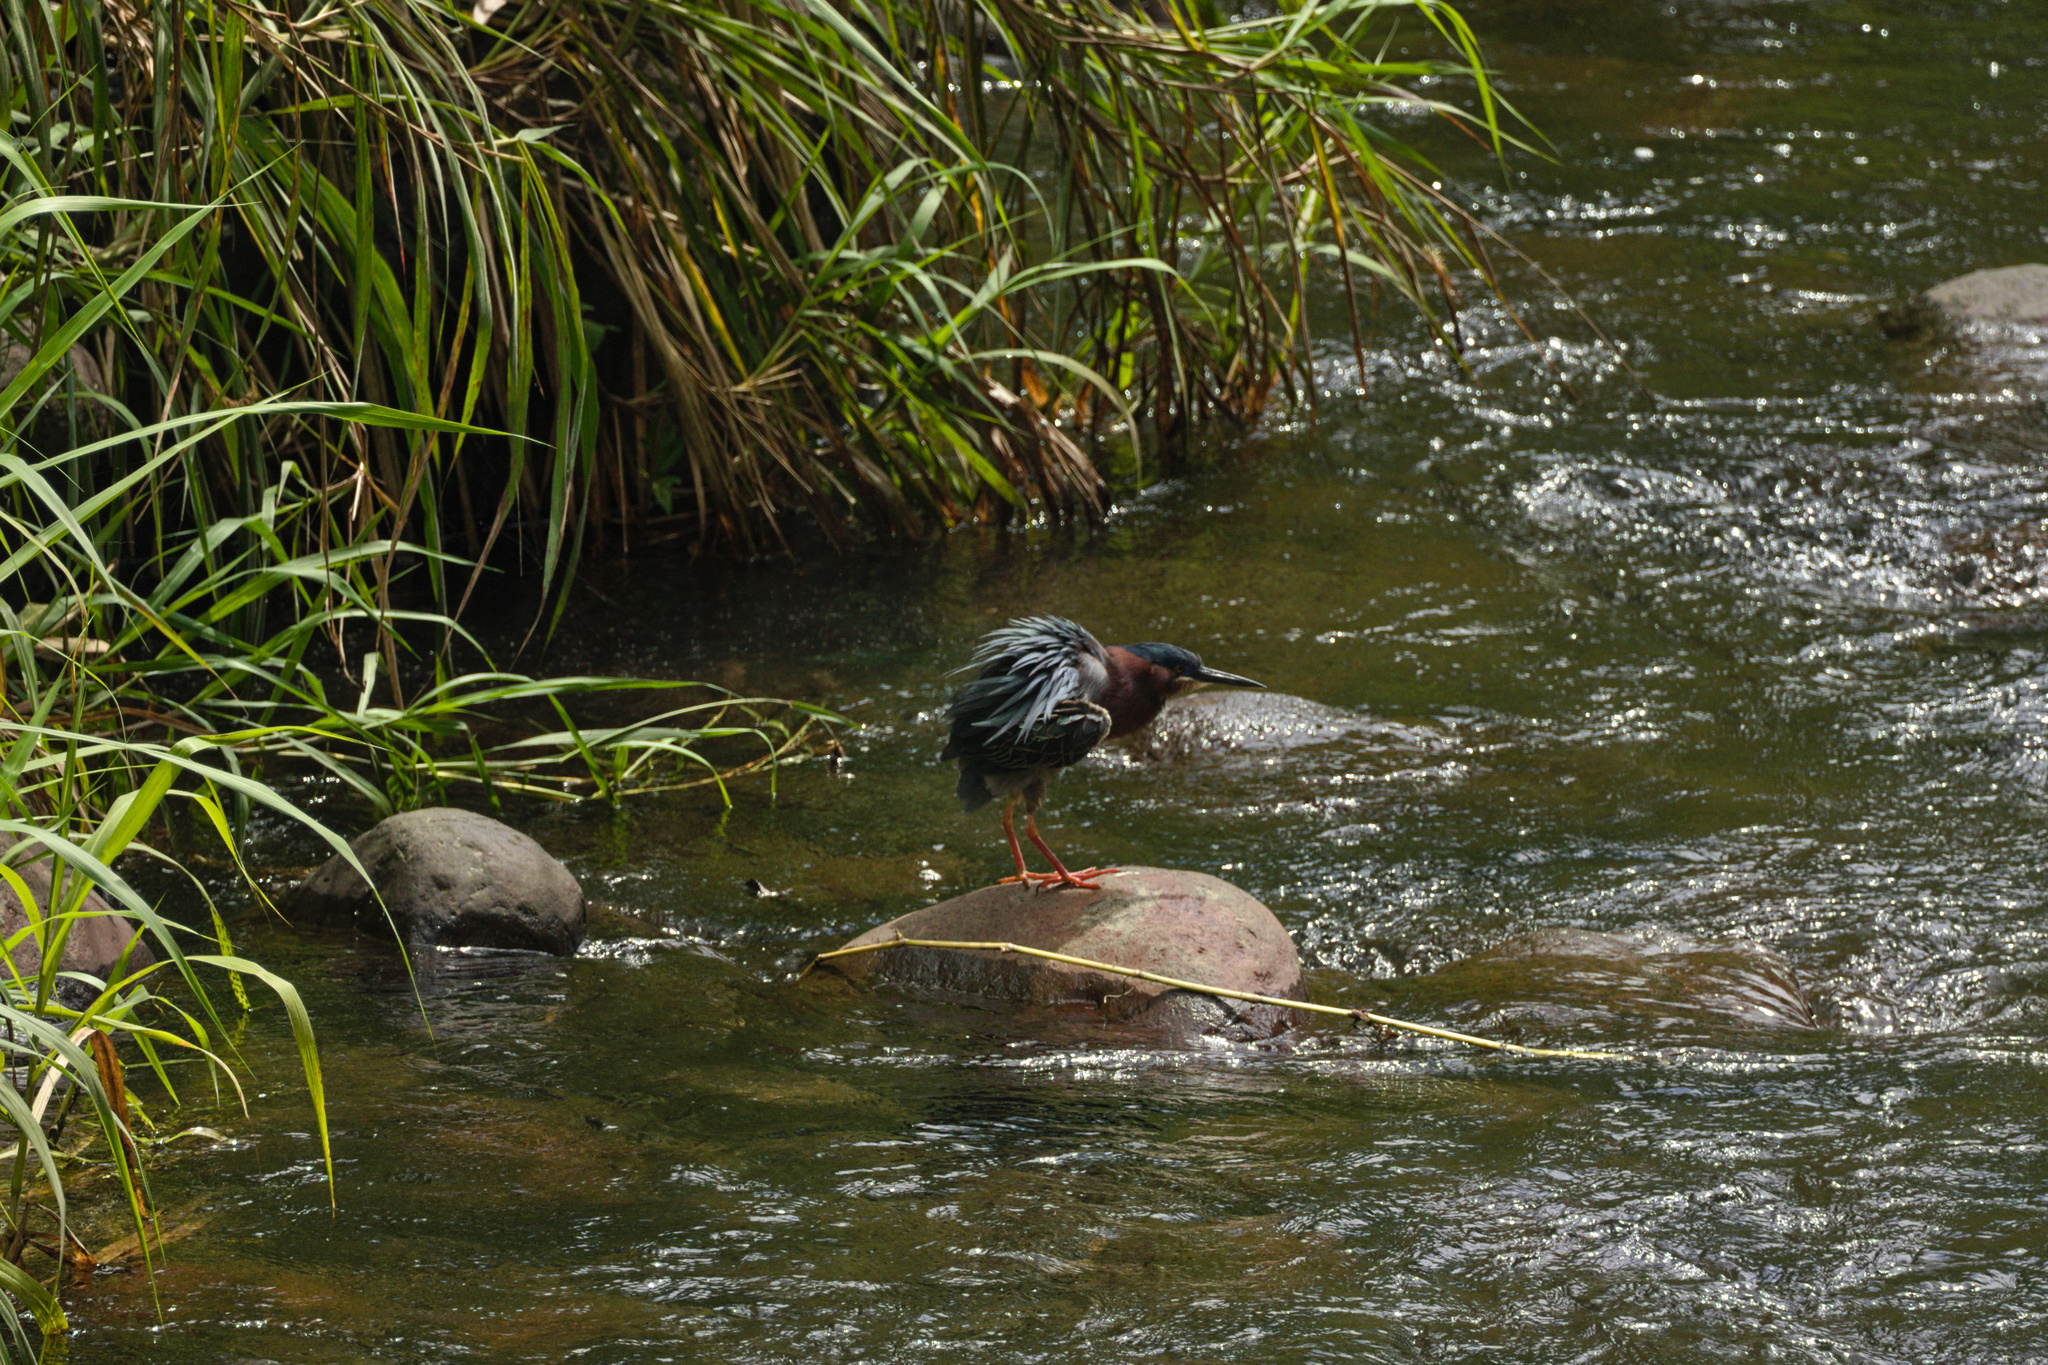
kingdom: Animalia
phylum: Chordata
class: Aves
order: Pelecaniformes
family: Ardeidae
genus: Butorides
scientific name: Butorides virescens
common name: Green heron
